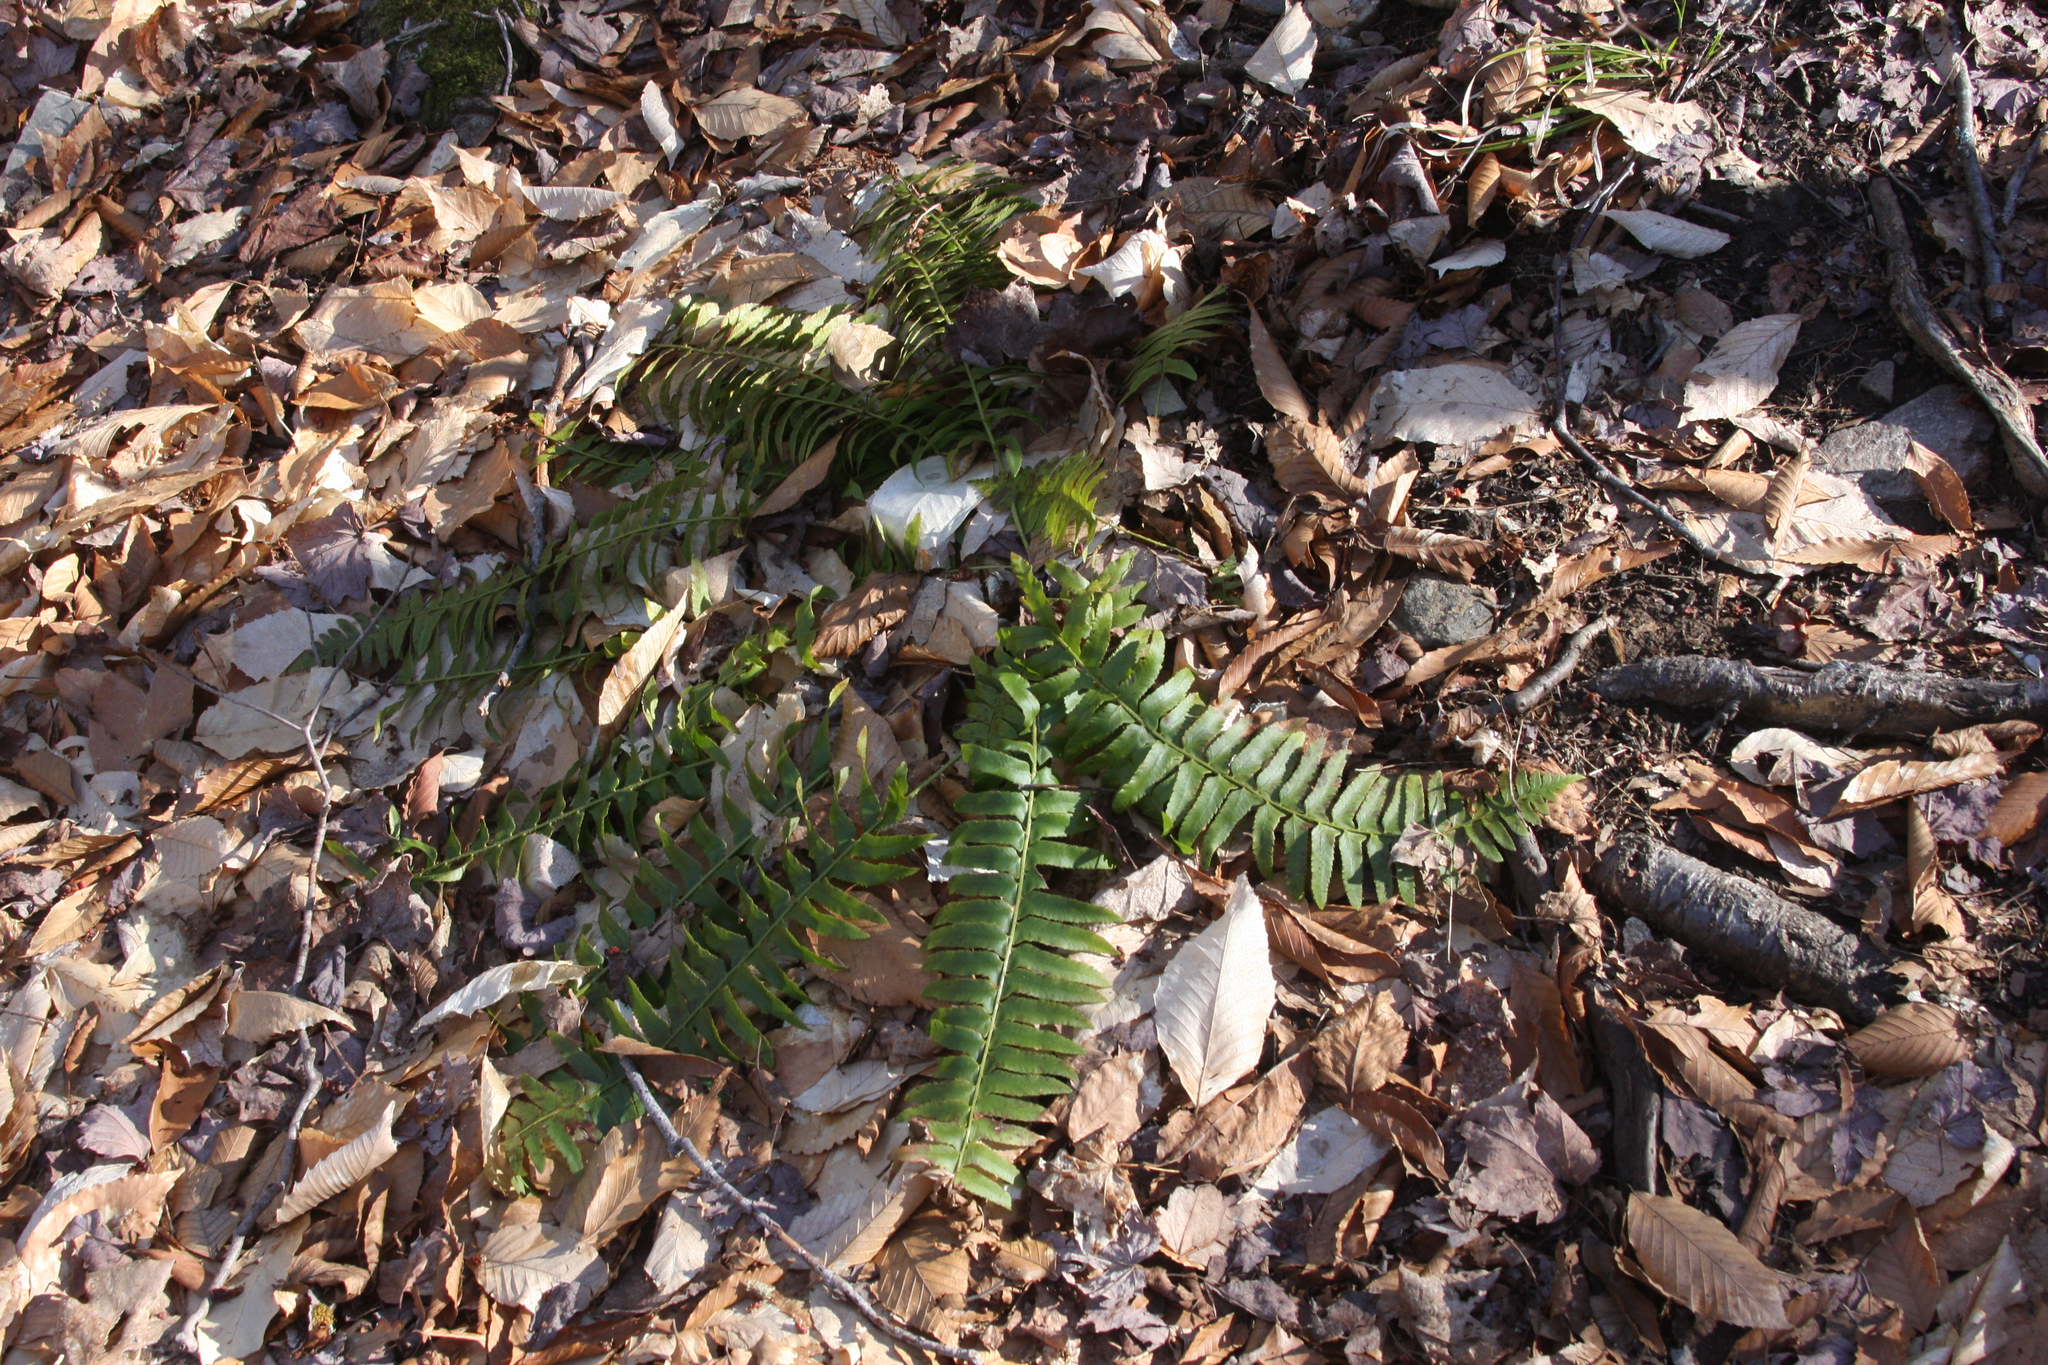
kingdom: Plantae
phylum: Tracheophyta
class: Polypodiopsida
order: Polypodiales
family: Dryopteridaceae
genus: Polystichum
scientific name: Polystichum acrostichoides
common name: Christmas fern
